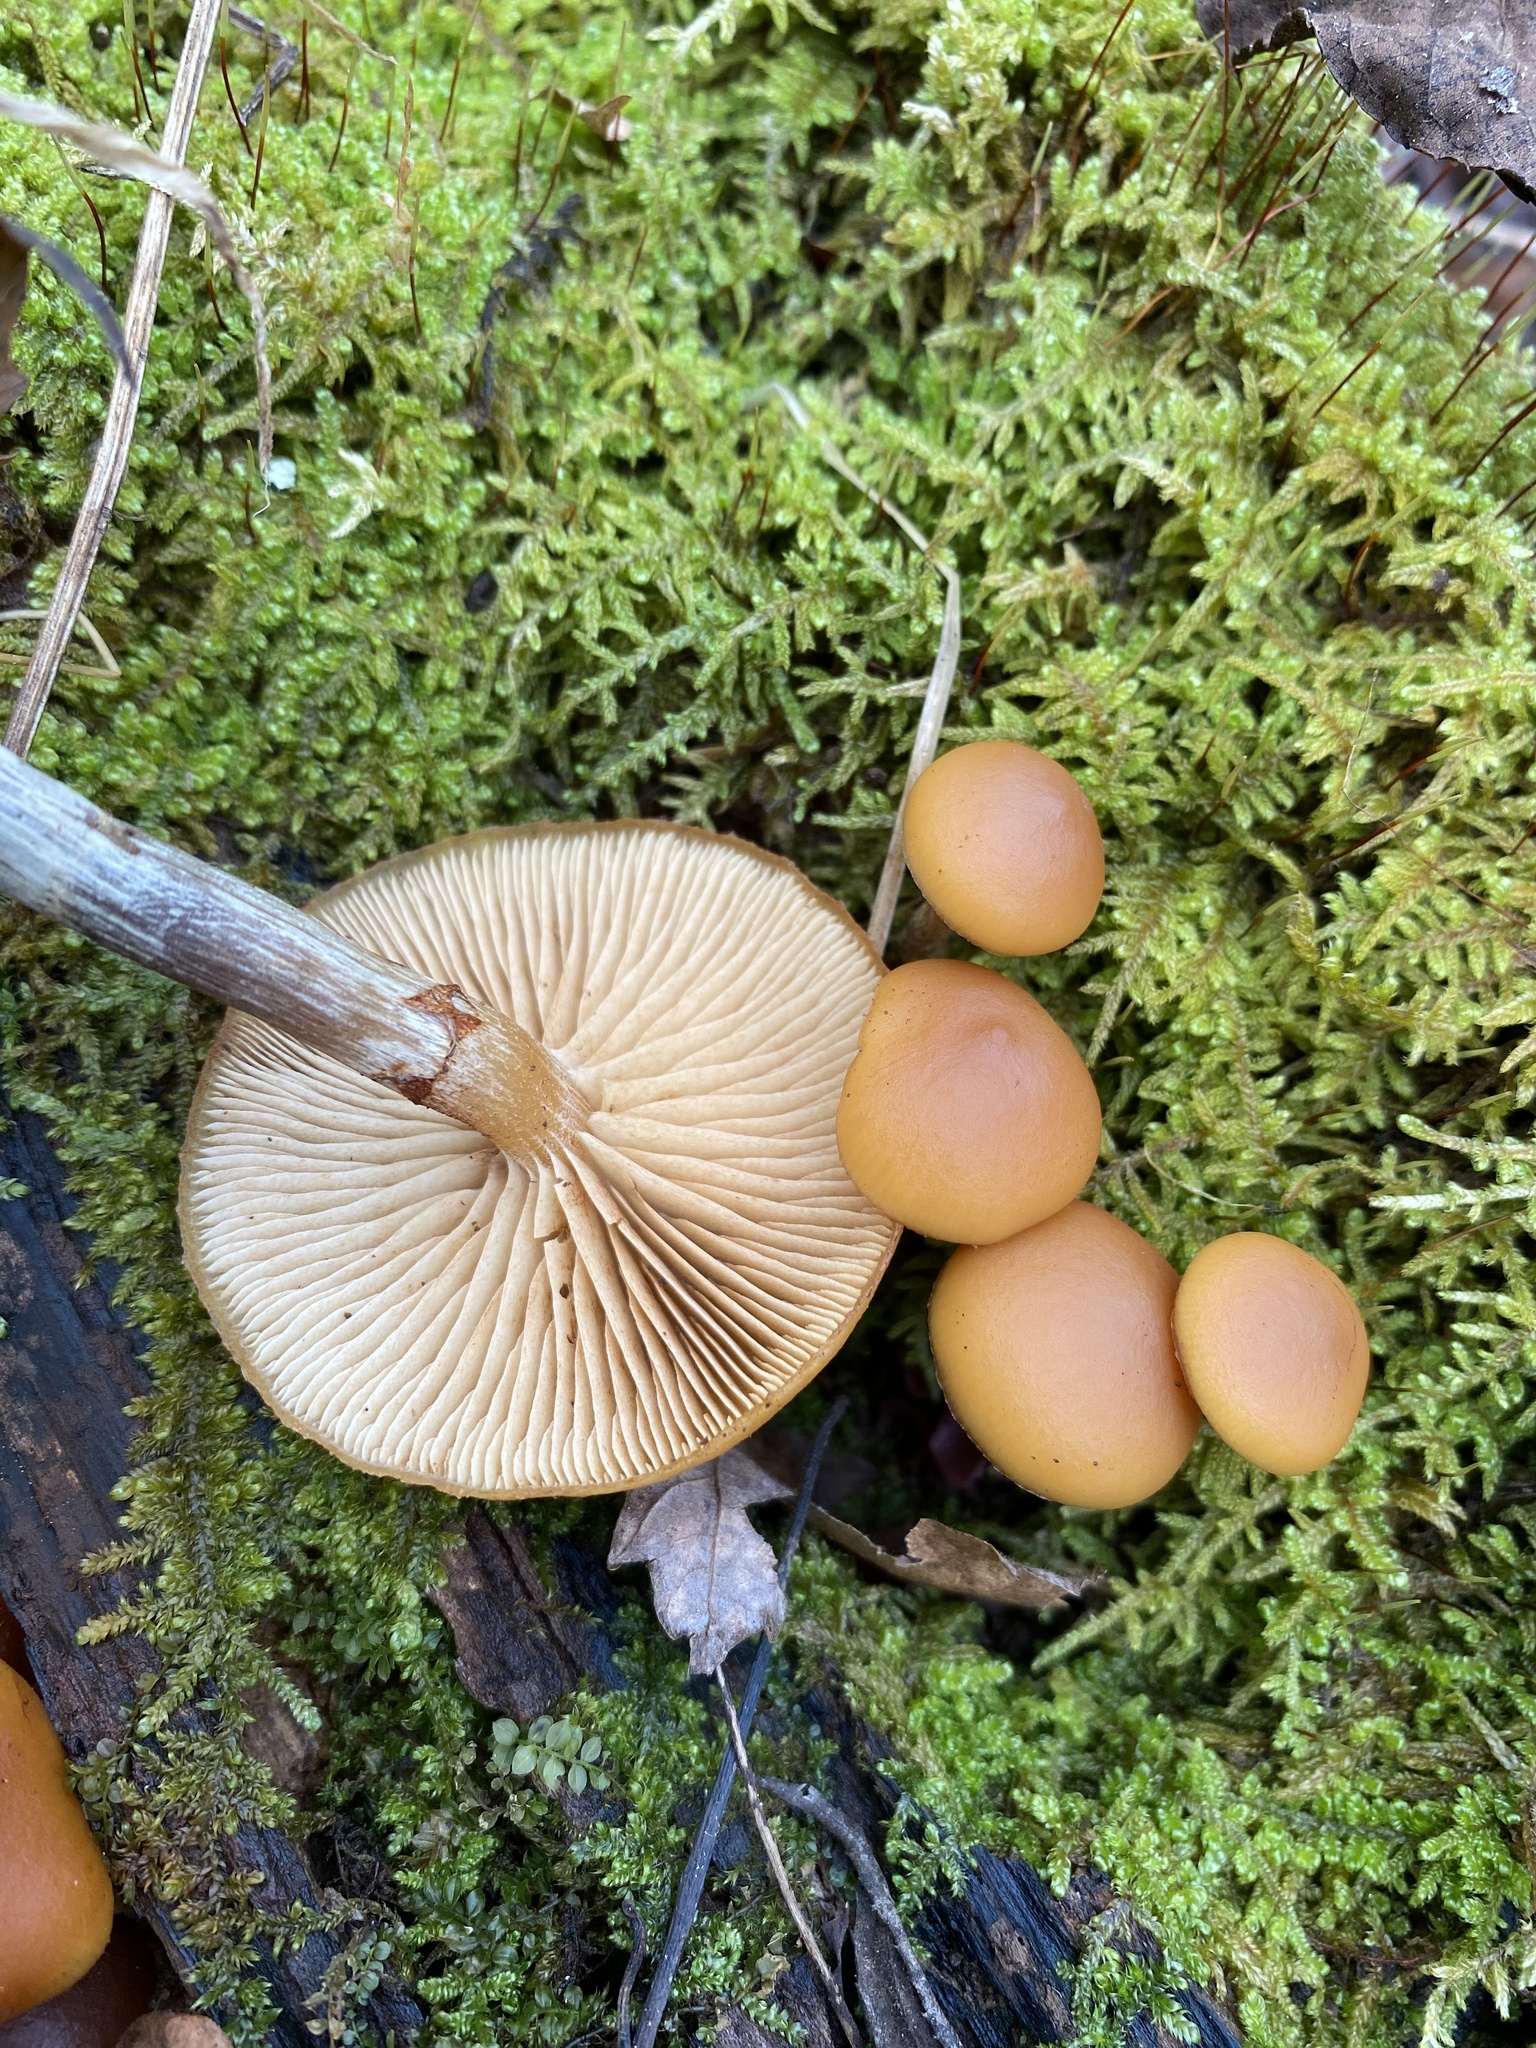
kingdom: Fungi
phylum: Basidiomycota
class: Agaricomycetes
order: Agaricales
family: Hymenogastraceae
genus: Galerina
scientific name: Galerina marginata
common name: Funeral bell
